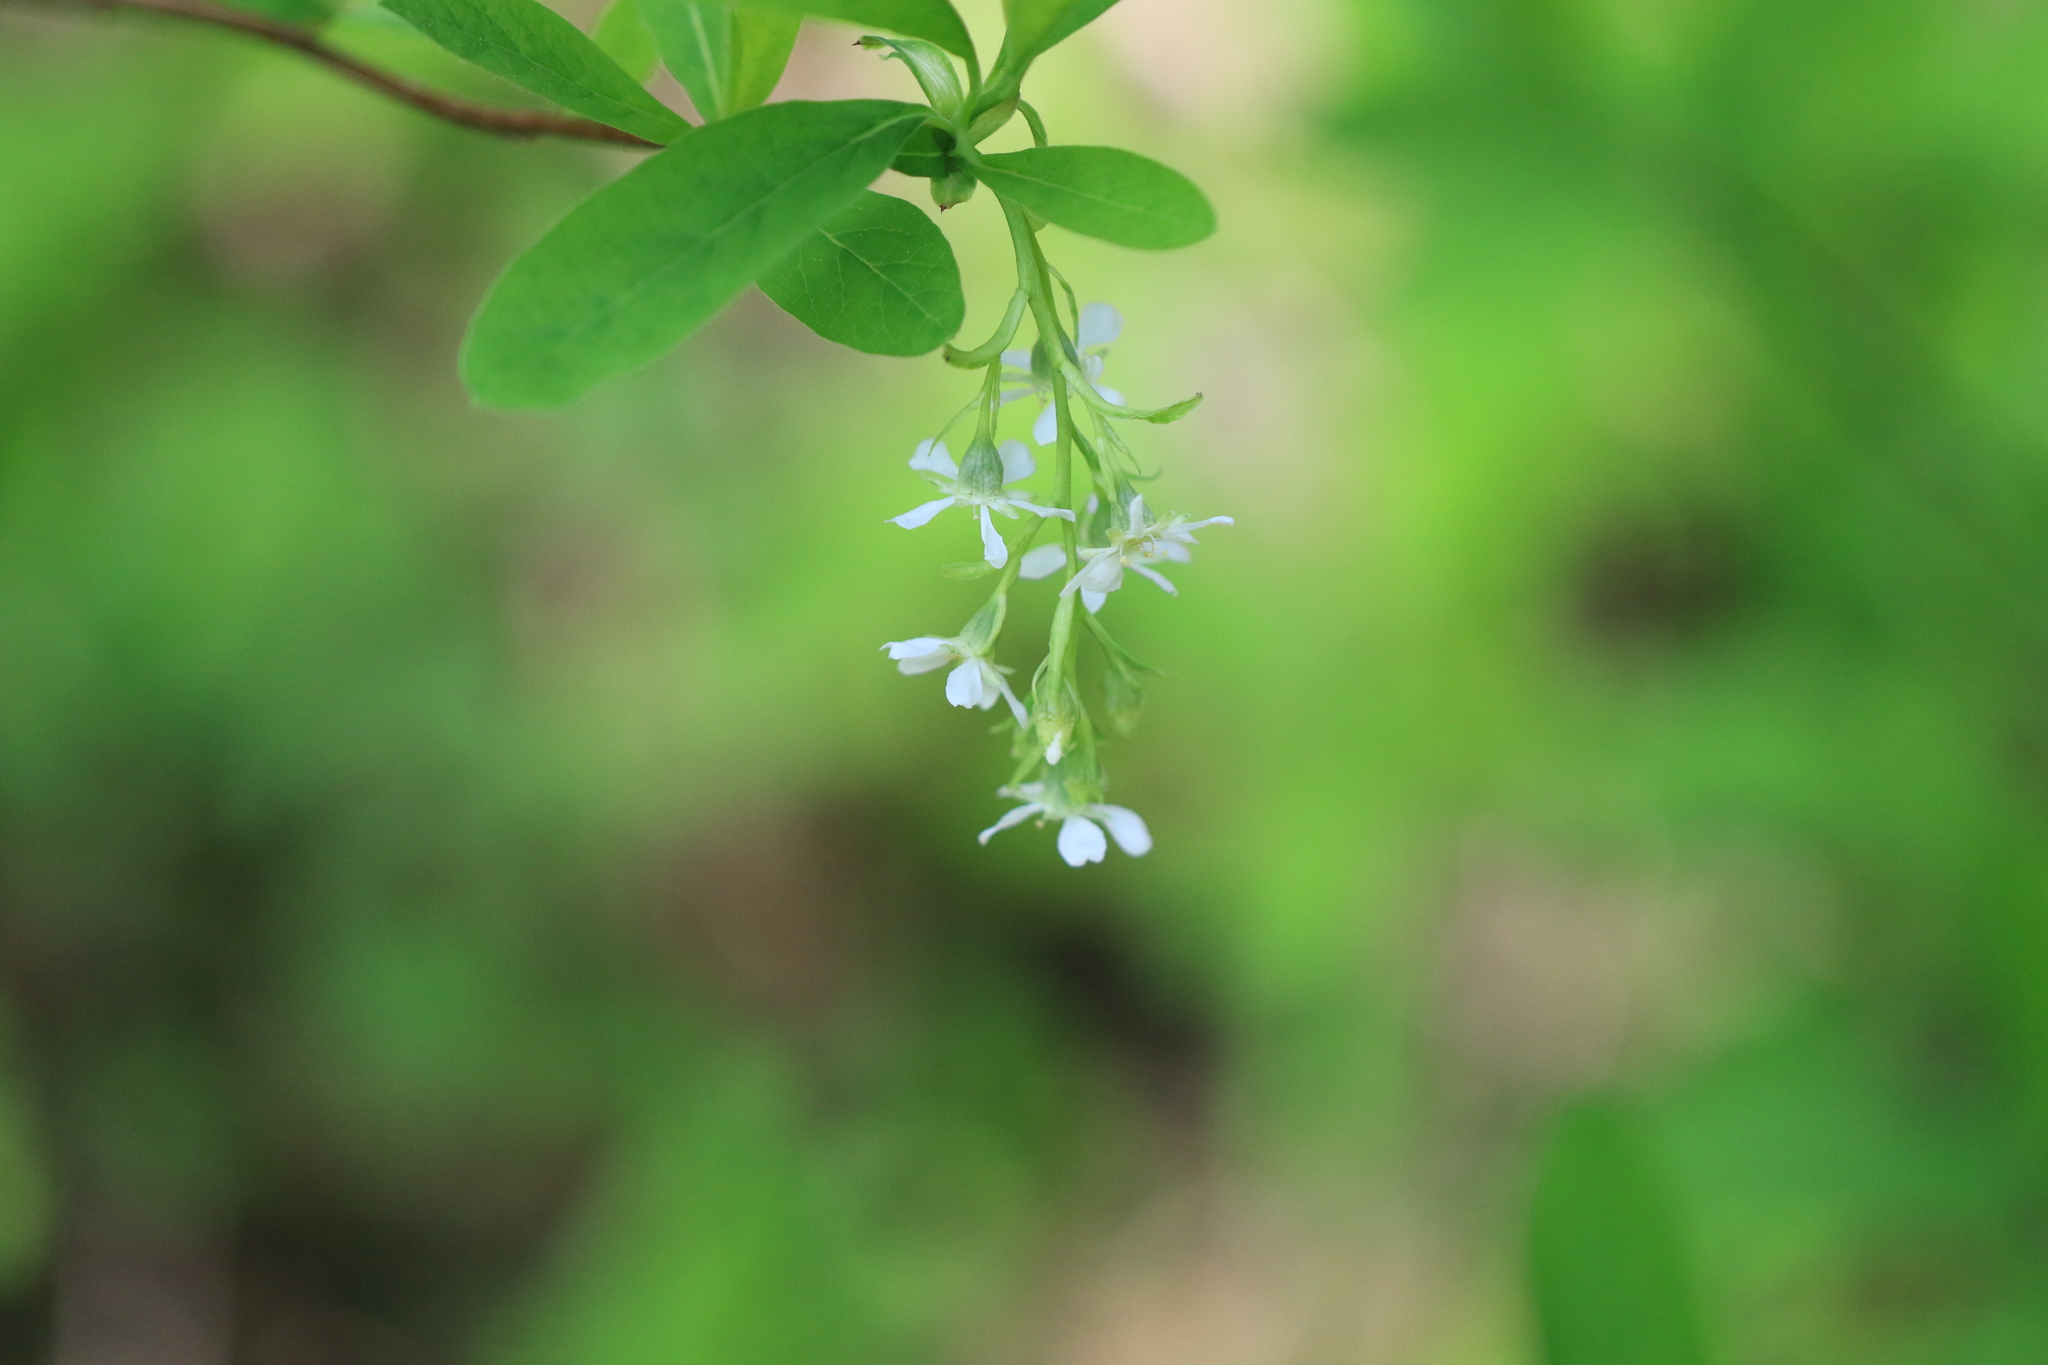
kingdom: Plantae
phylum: Tracheophyta
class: Magnoliopsida
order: Rosales
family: Rosaceae
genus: Oemleria
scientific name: Oemleria cerasiformis
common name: Osoberry
